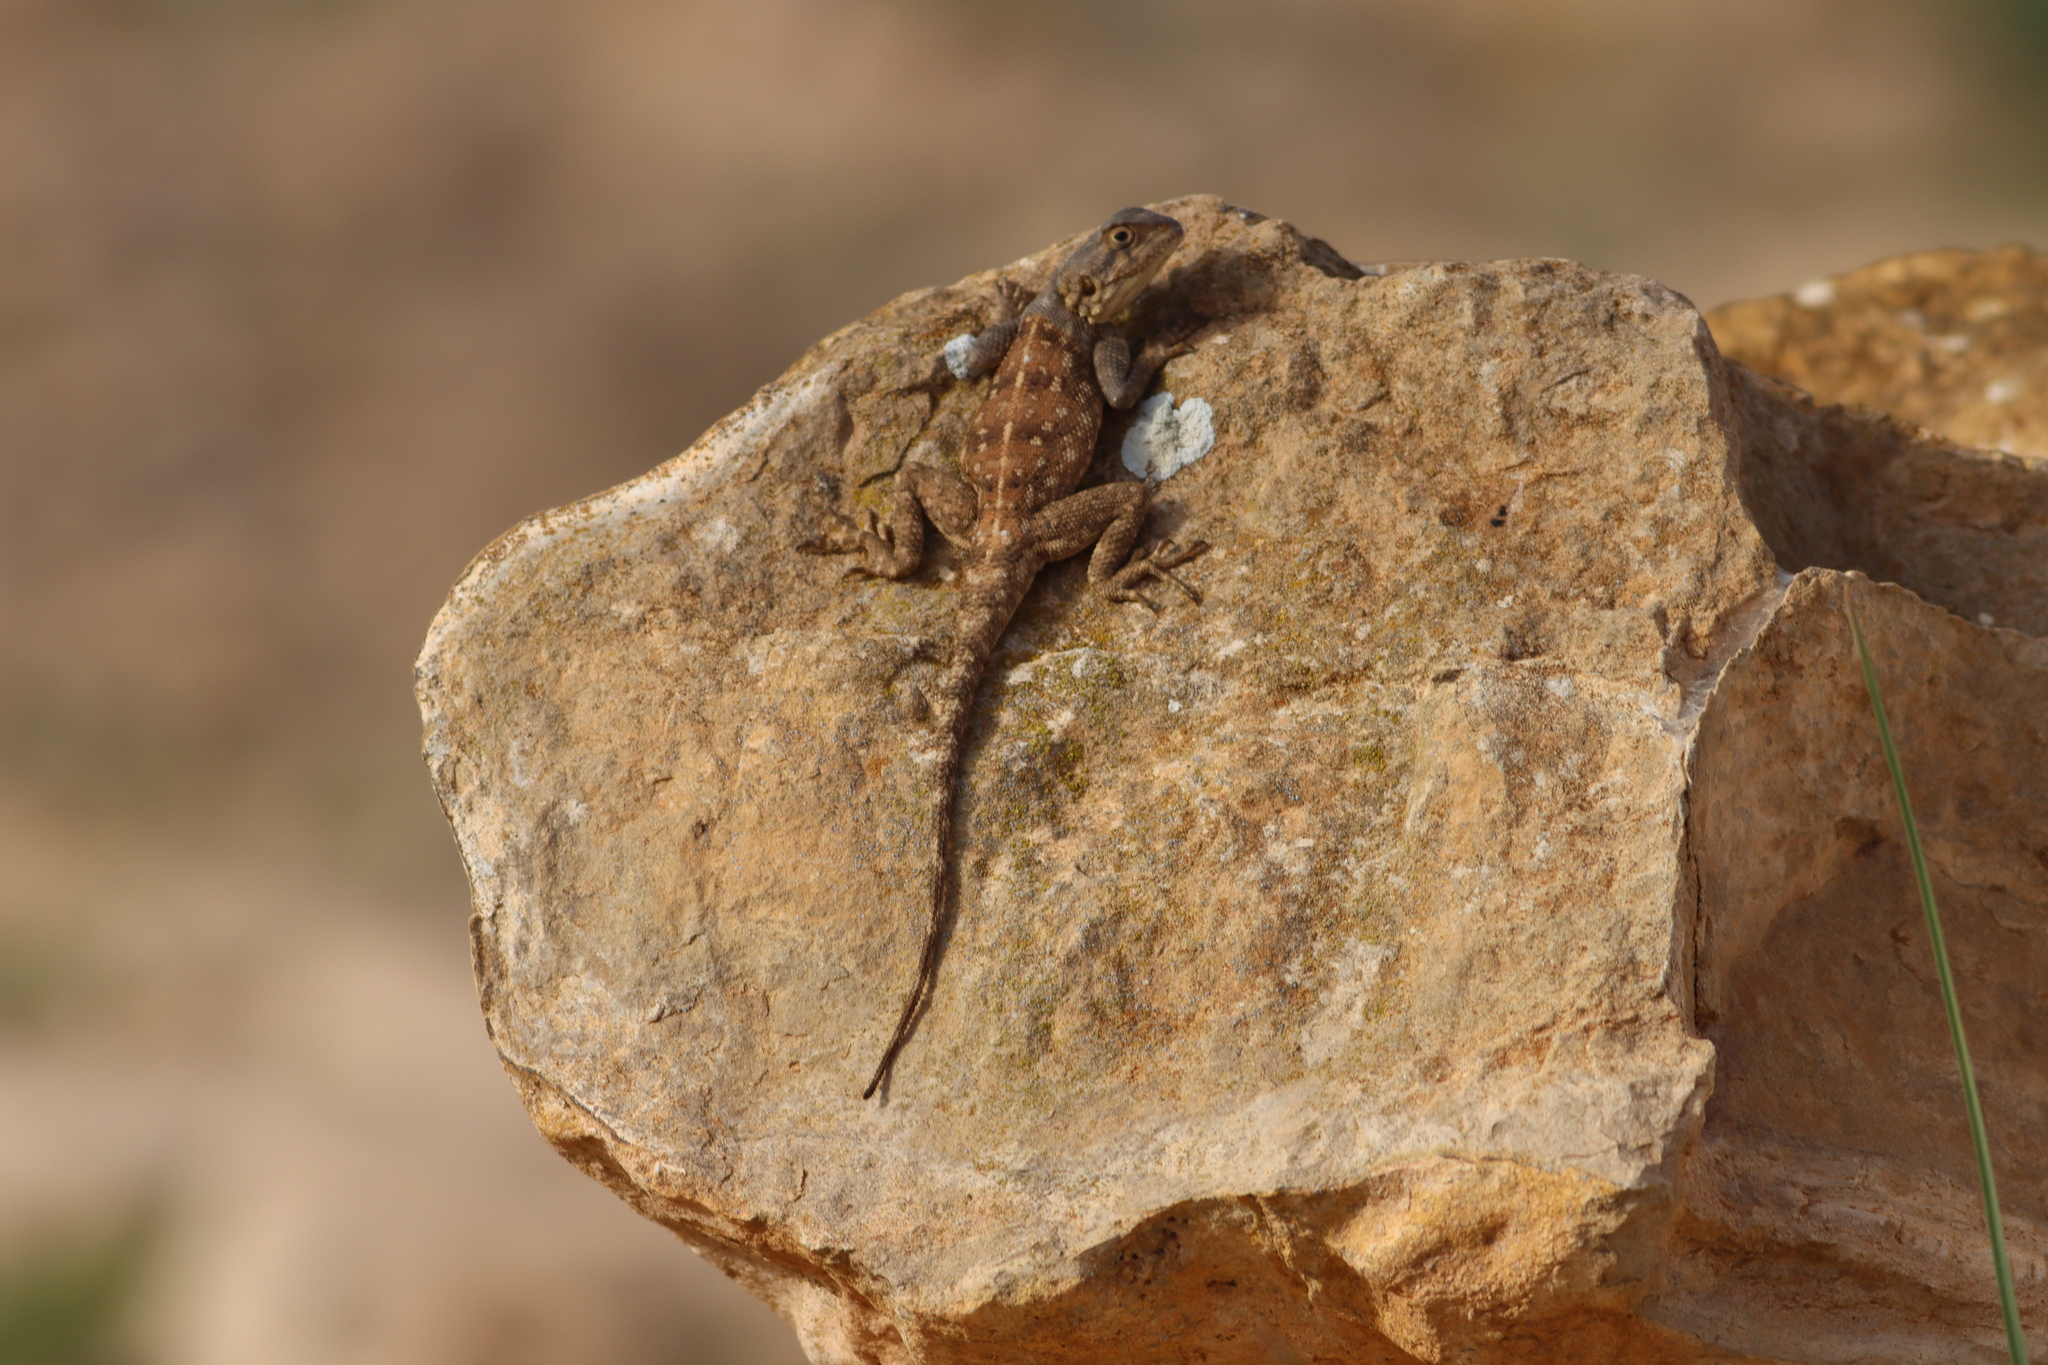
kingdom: Animalia
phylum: Chordata
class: Squamata
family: Agamidae
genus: Agama
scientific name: Agama impalearis
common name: Bibron's agama
